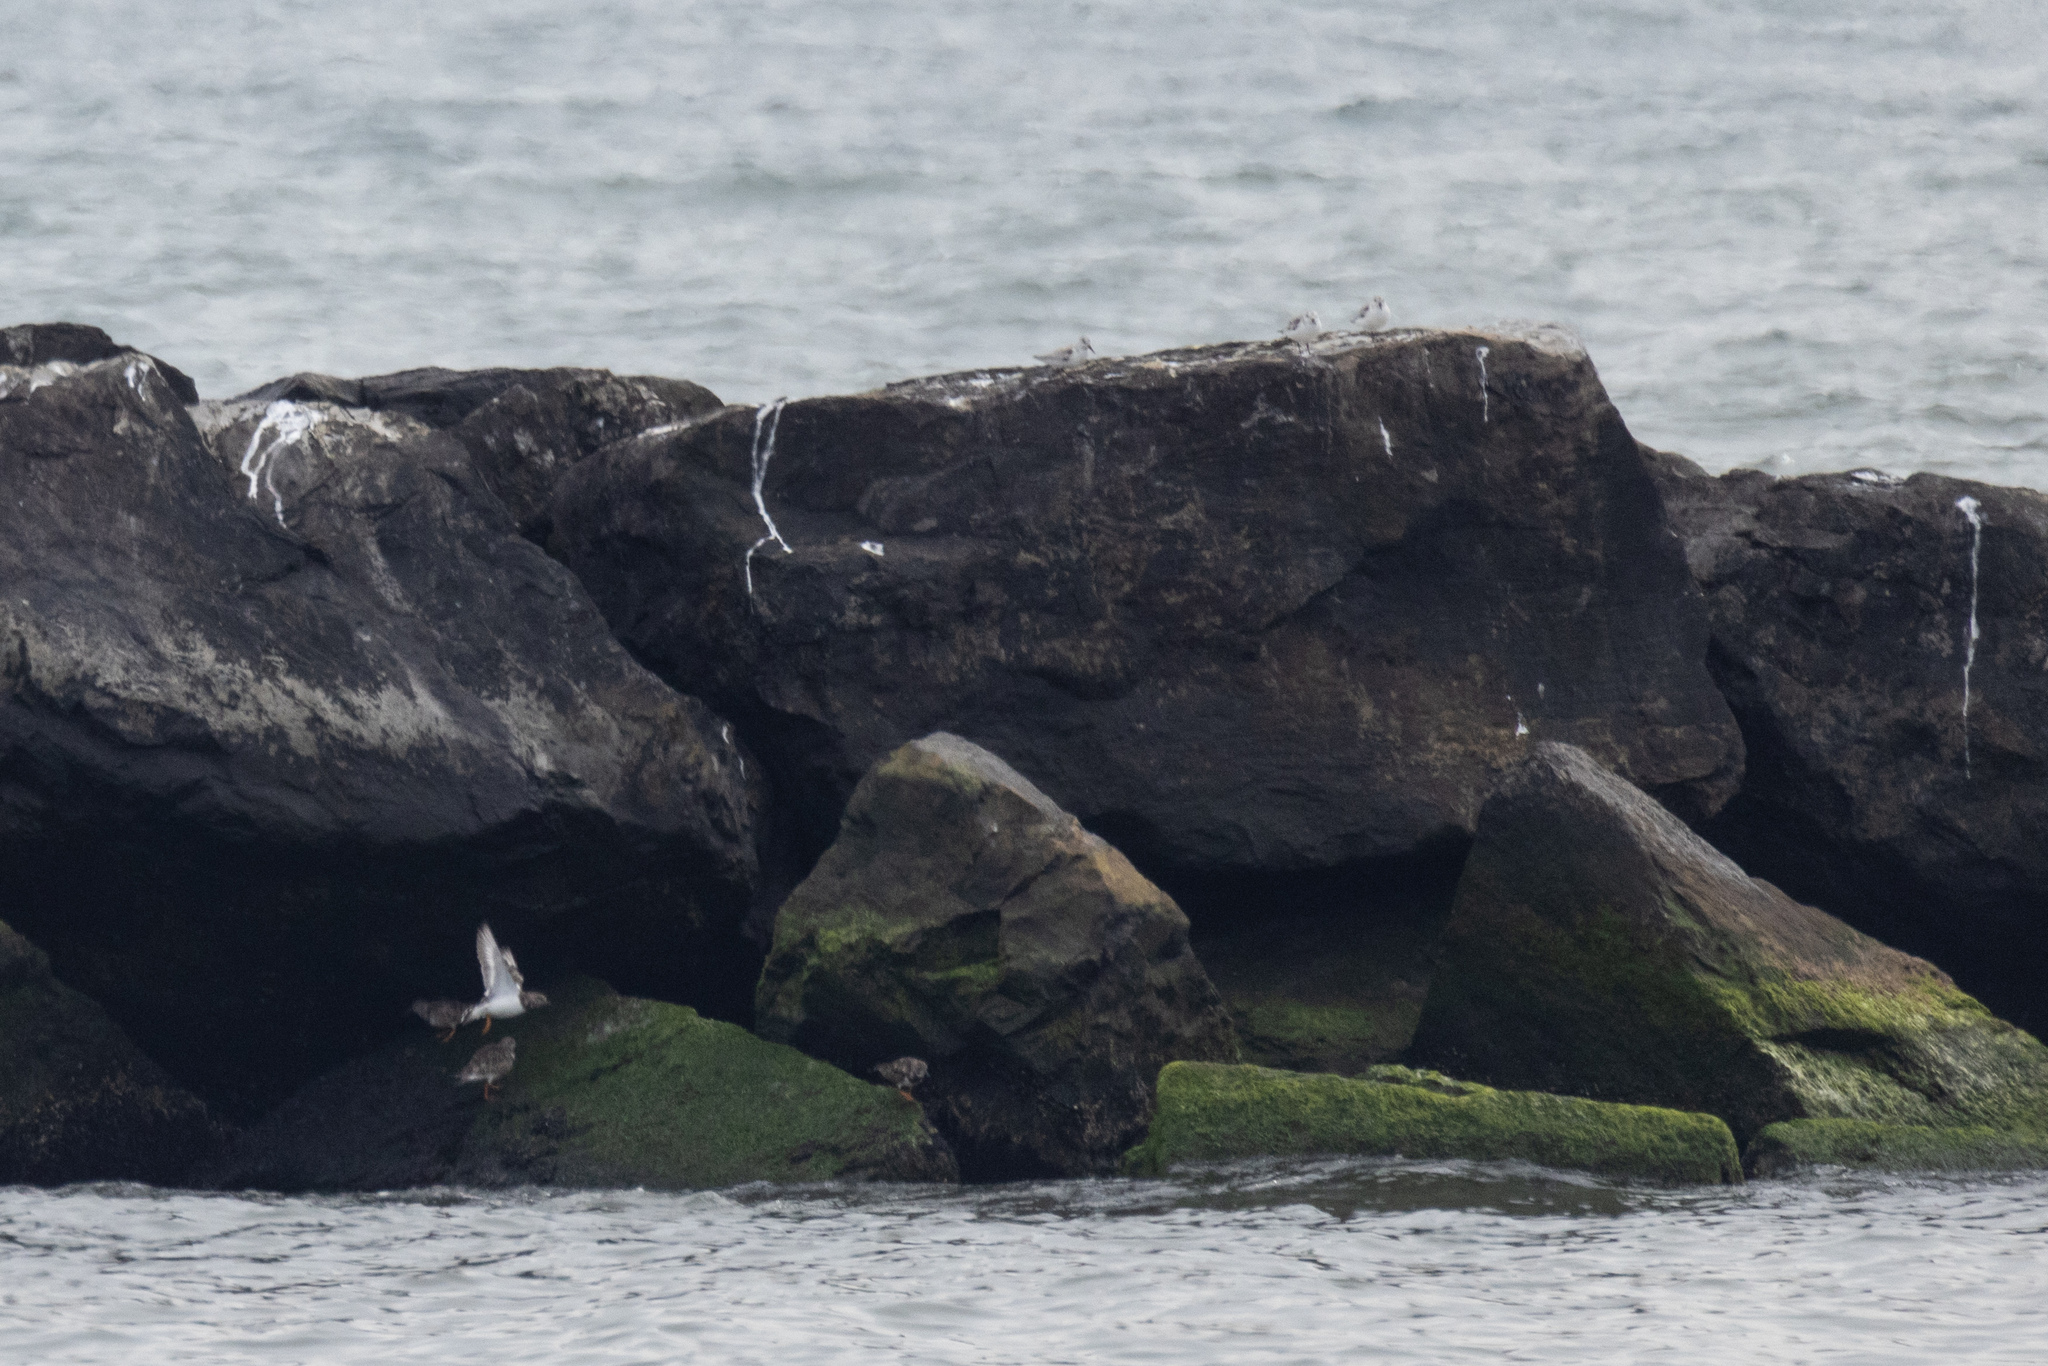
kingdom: Animalia
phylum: Chordata
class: Aves
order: Charadriiformes
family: Scolopacidae
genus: Arenaria
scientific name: Arenaria interpres
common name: Ruddy turnstone
